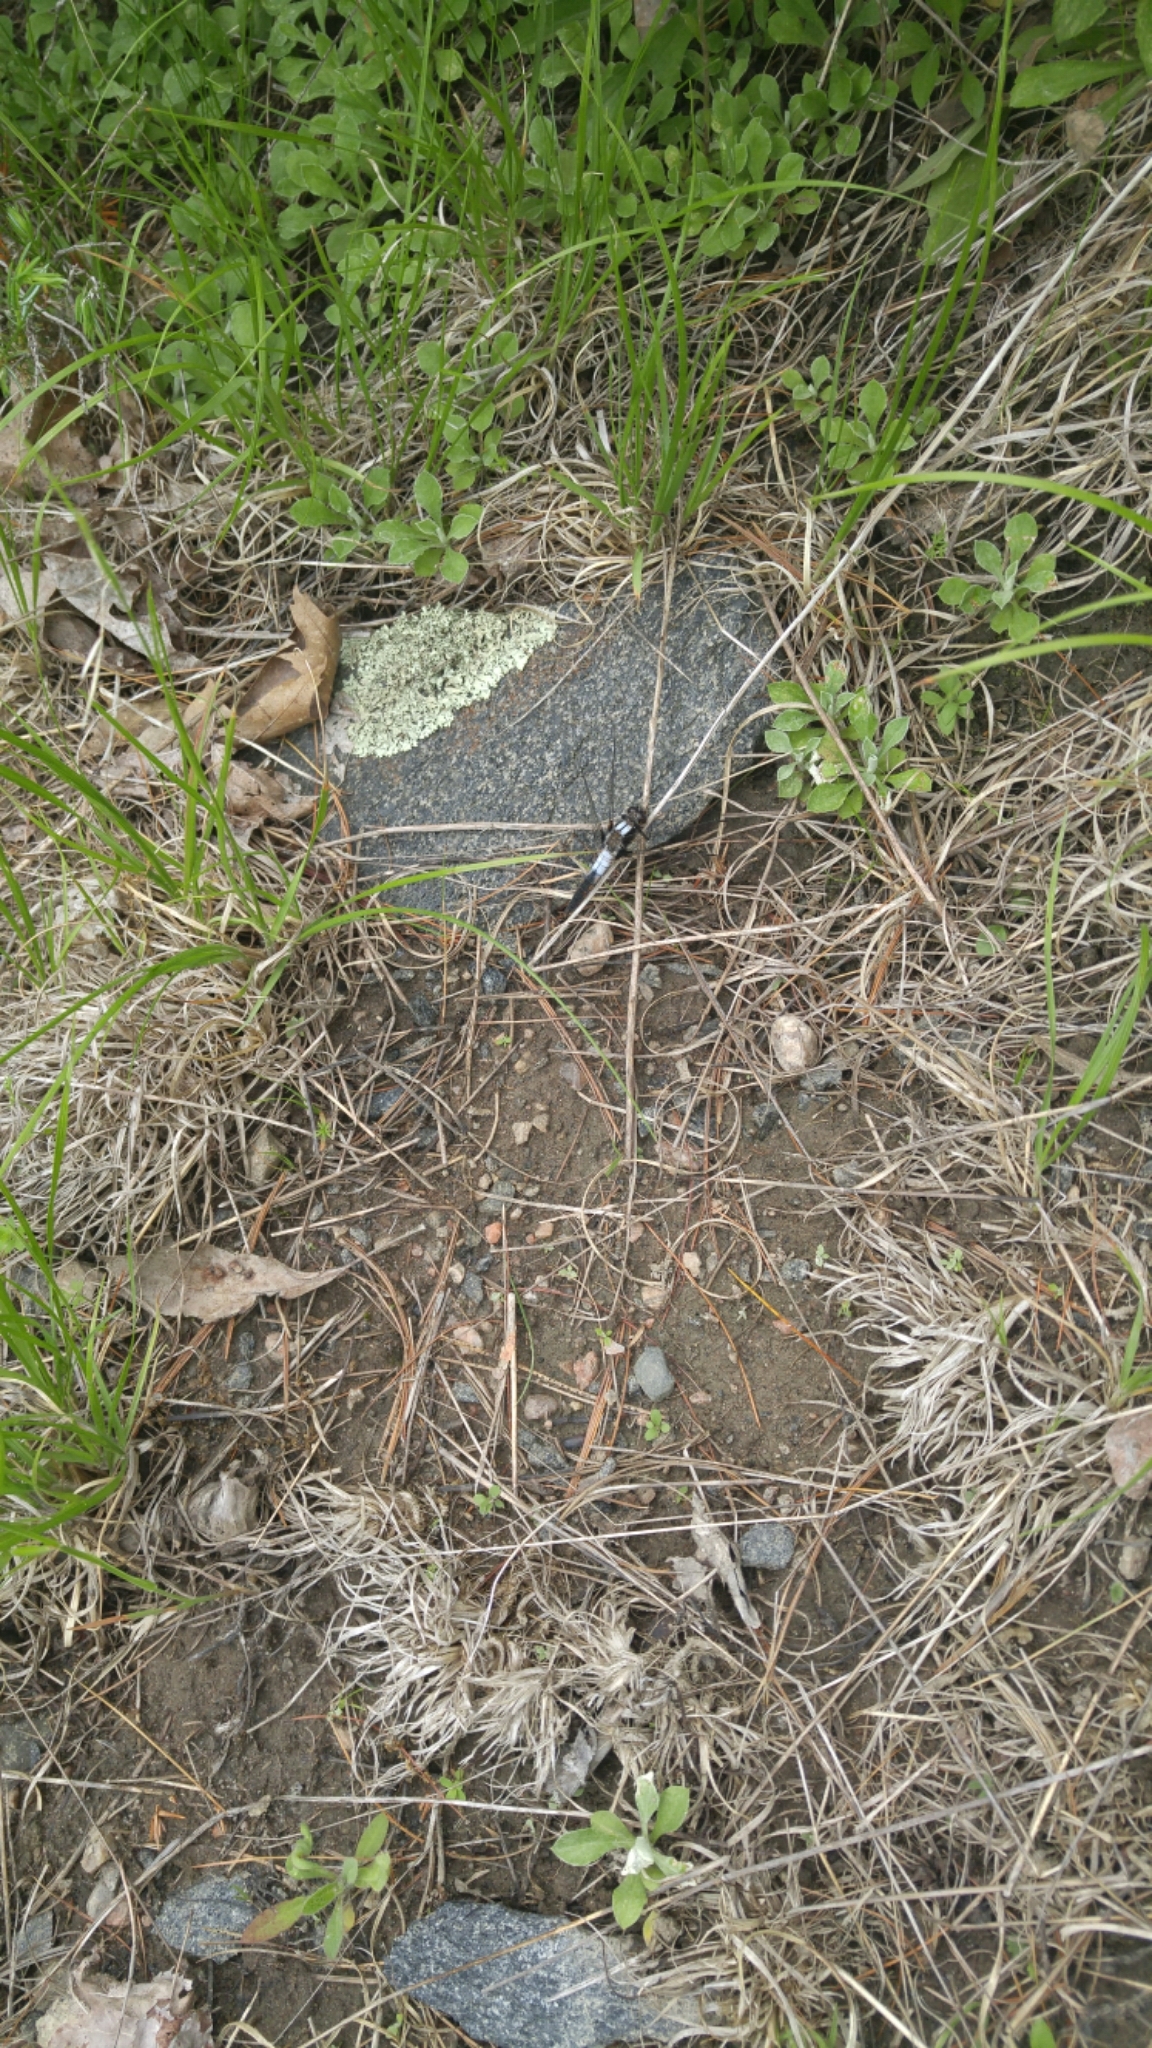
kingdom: Animalia
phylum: Arthropoda
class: Insecta
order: Odonata
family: Libellulidae
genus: Ladona
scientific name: Ladona julia
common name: Chalk-fronted corporal
